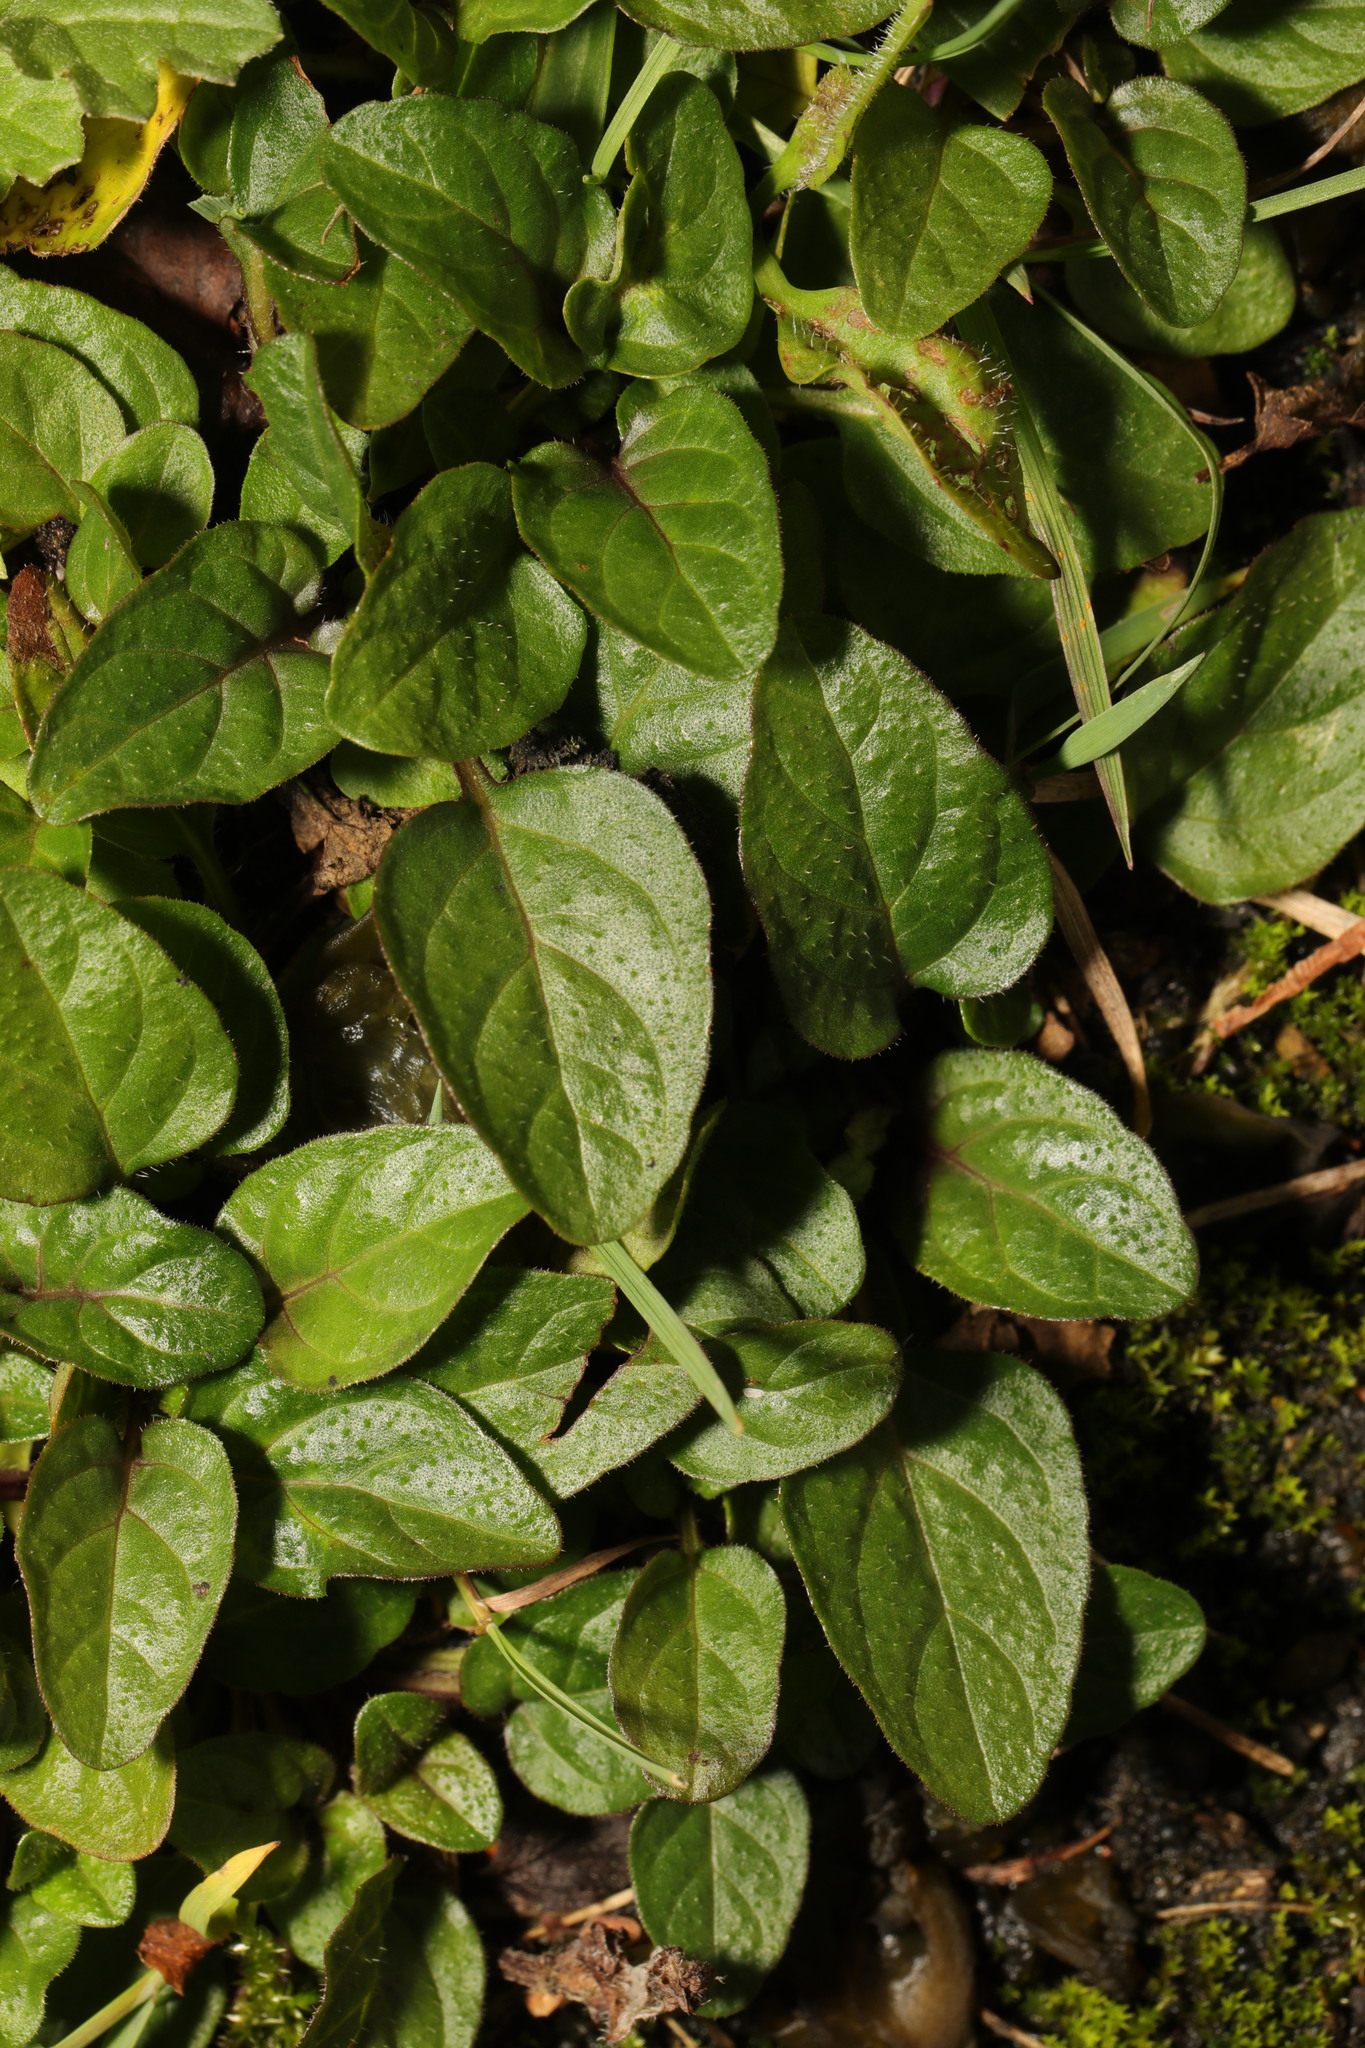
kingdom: Plantae
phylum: Tracheophyta
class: Magnoliopsida
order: Lamiales
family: Lamiaceae
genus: Prunella
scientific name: Prunella vulgaris
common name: Heal-all
